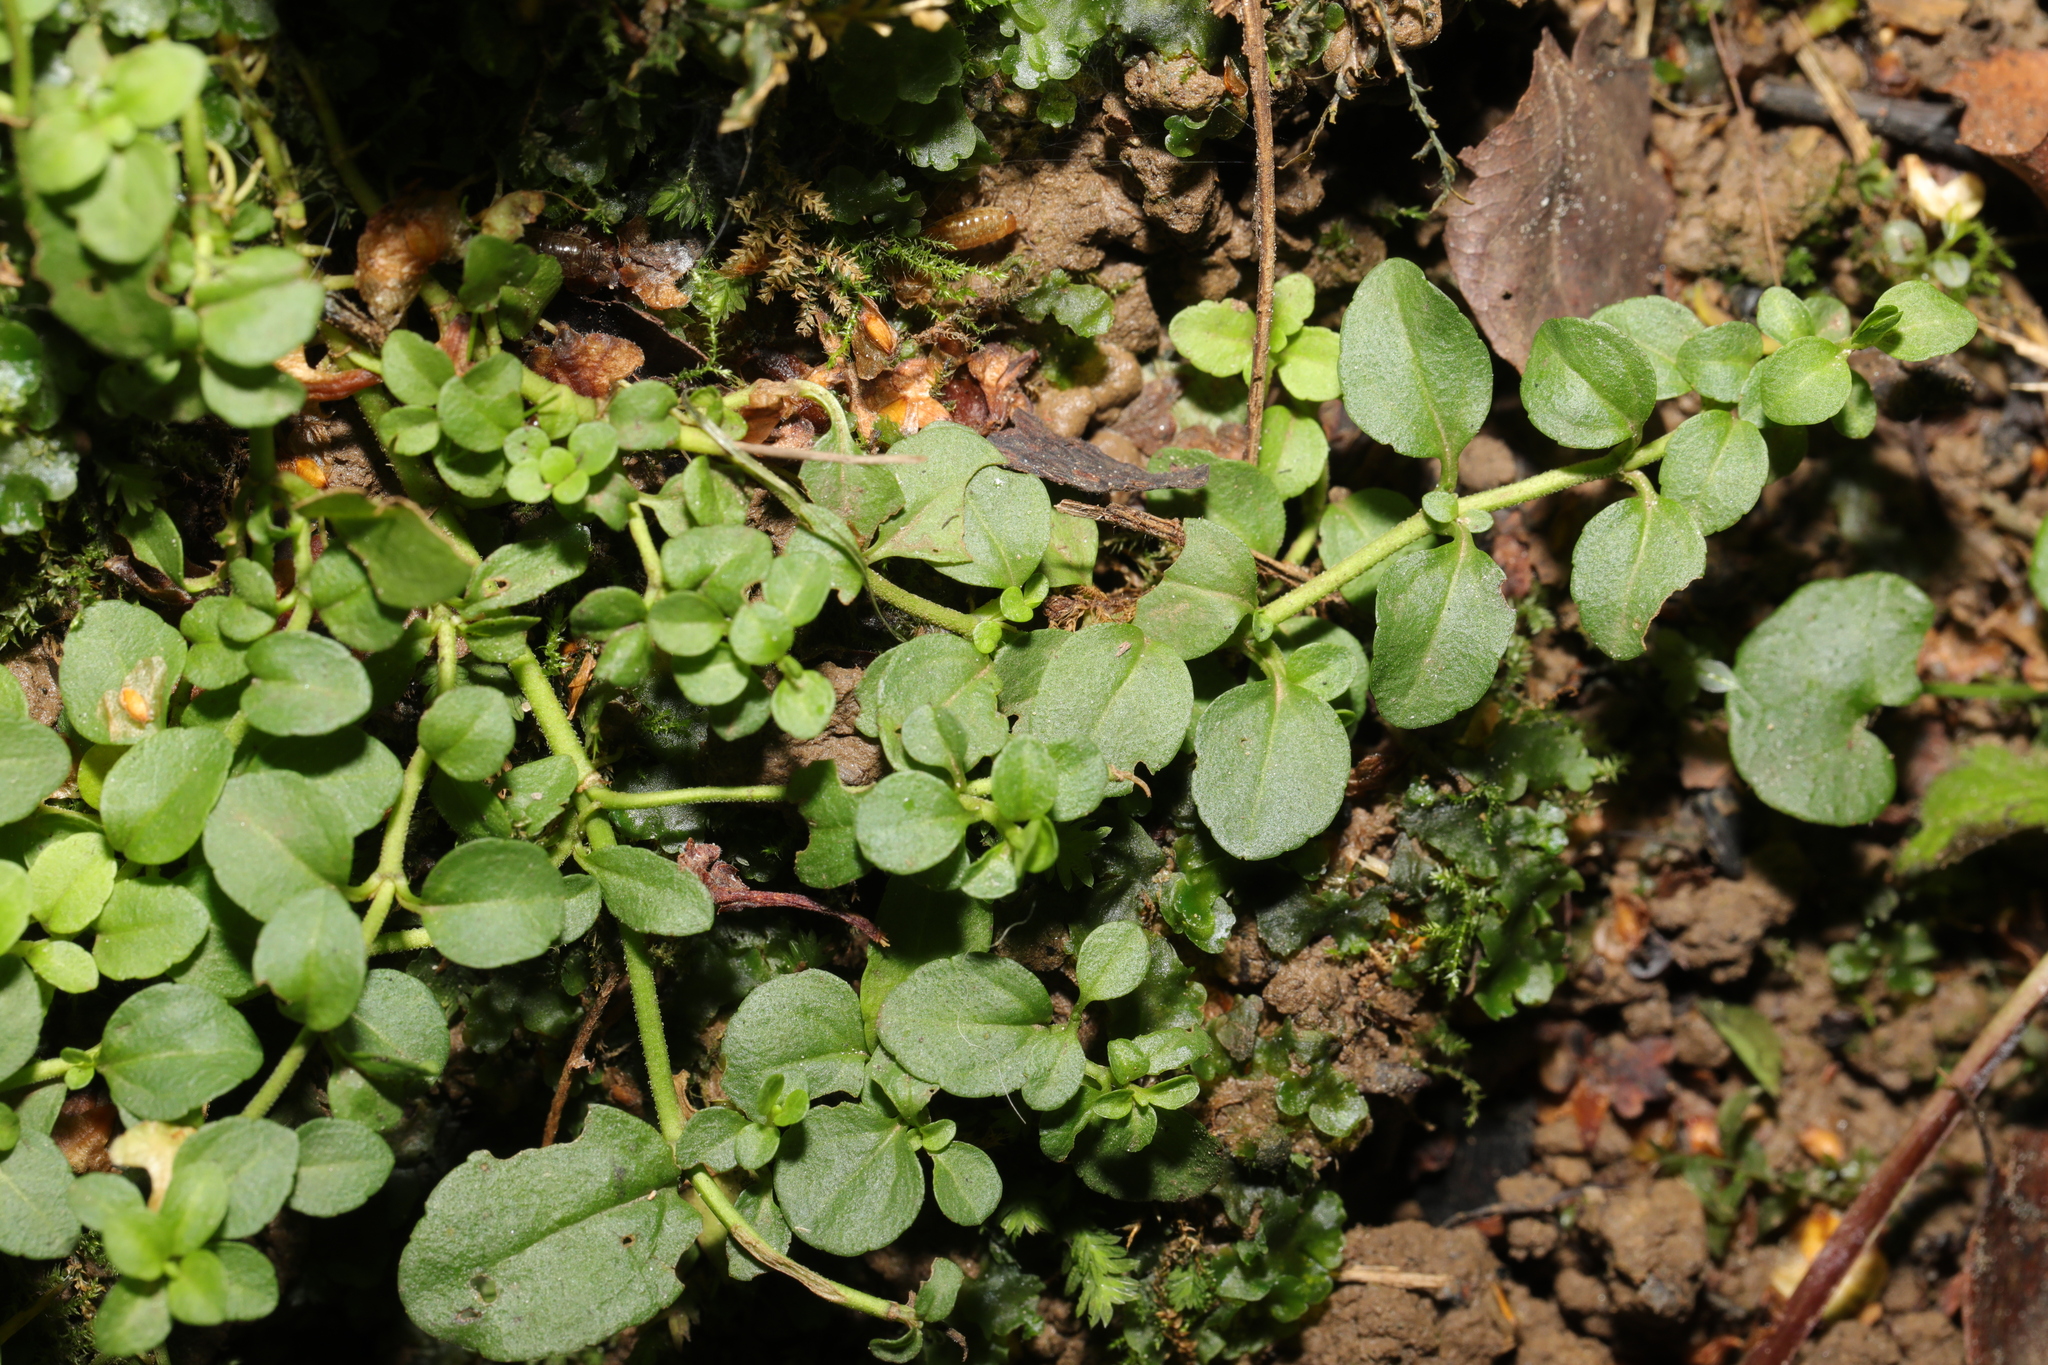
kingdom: Plantae
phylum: Tracheophyta
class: Magnoliopsida
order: Lamiales
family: Plantaginaceae
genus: Veronica
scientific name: Veronica serpyllifolia
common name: Thyme-leaved speedwell
